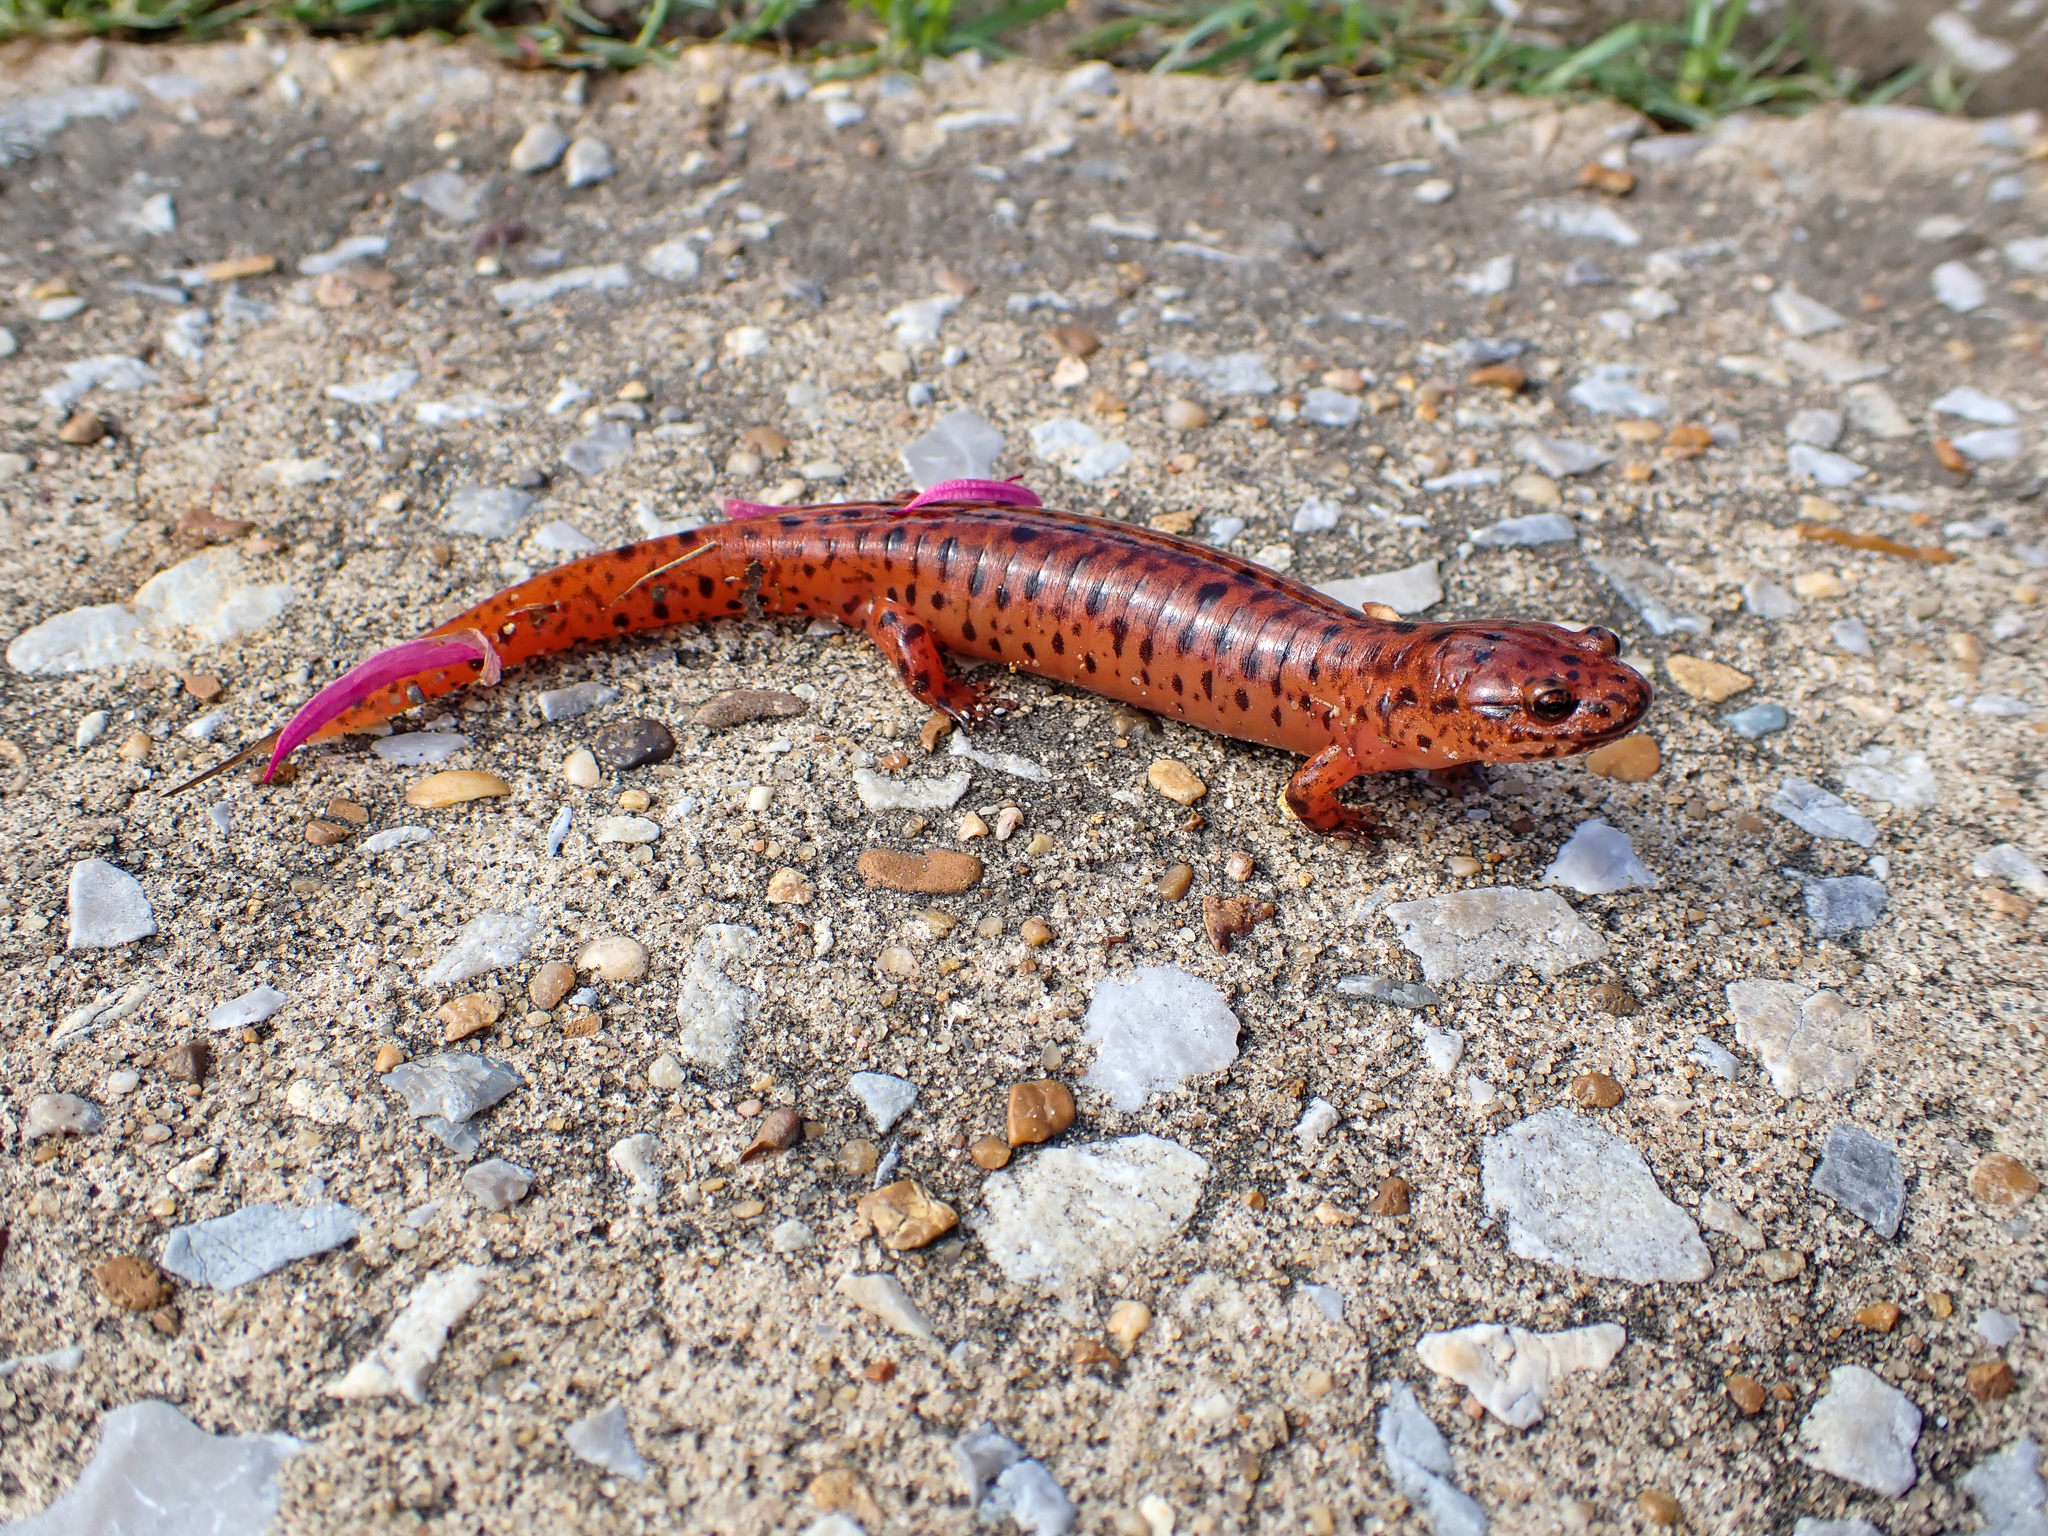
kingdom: Animalia
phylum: Chordata
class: Amphibia
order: Caudata
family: Plethodontidae
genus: Pseudotriton
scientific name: Pseudotriton ruber
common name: Red salamander
